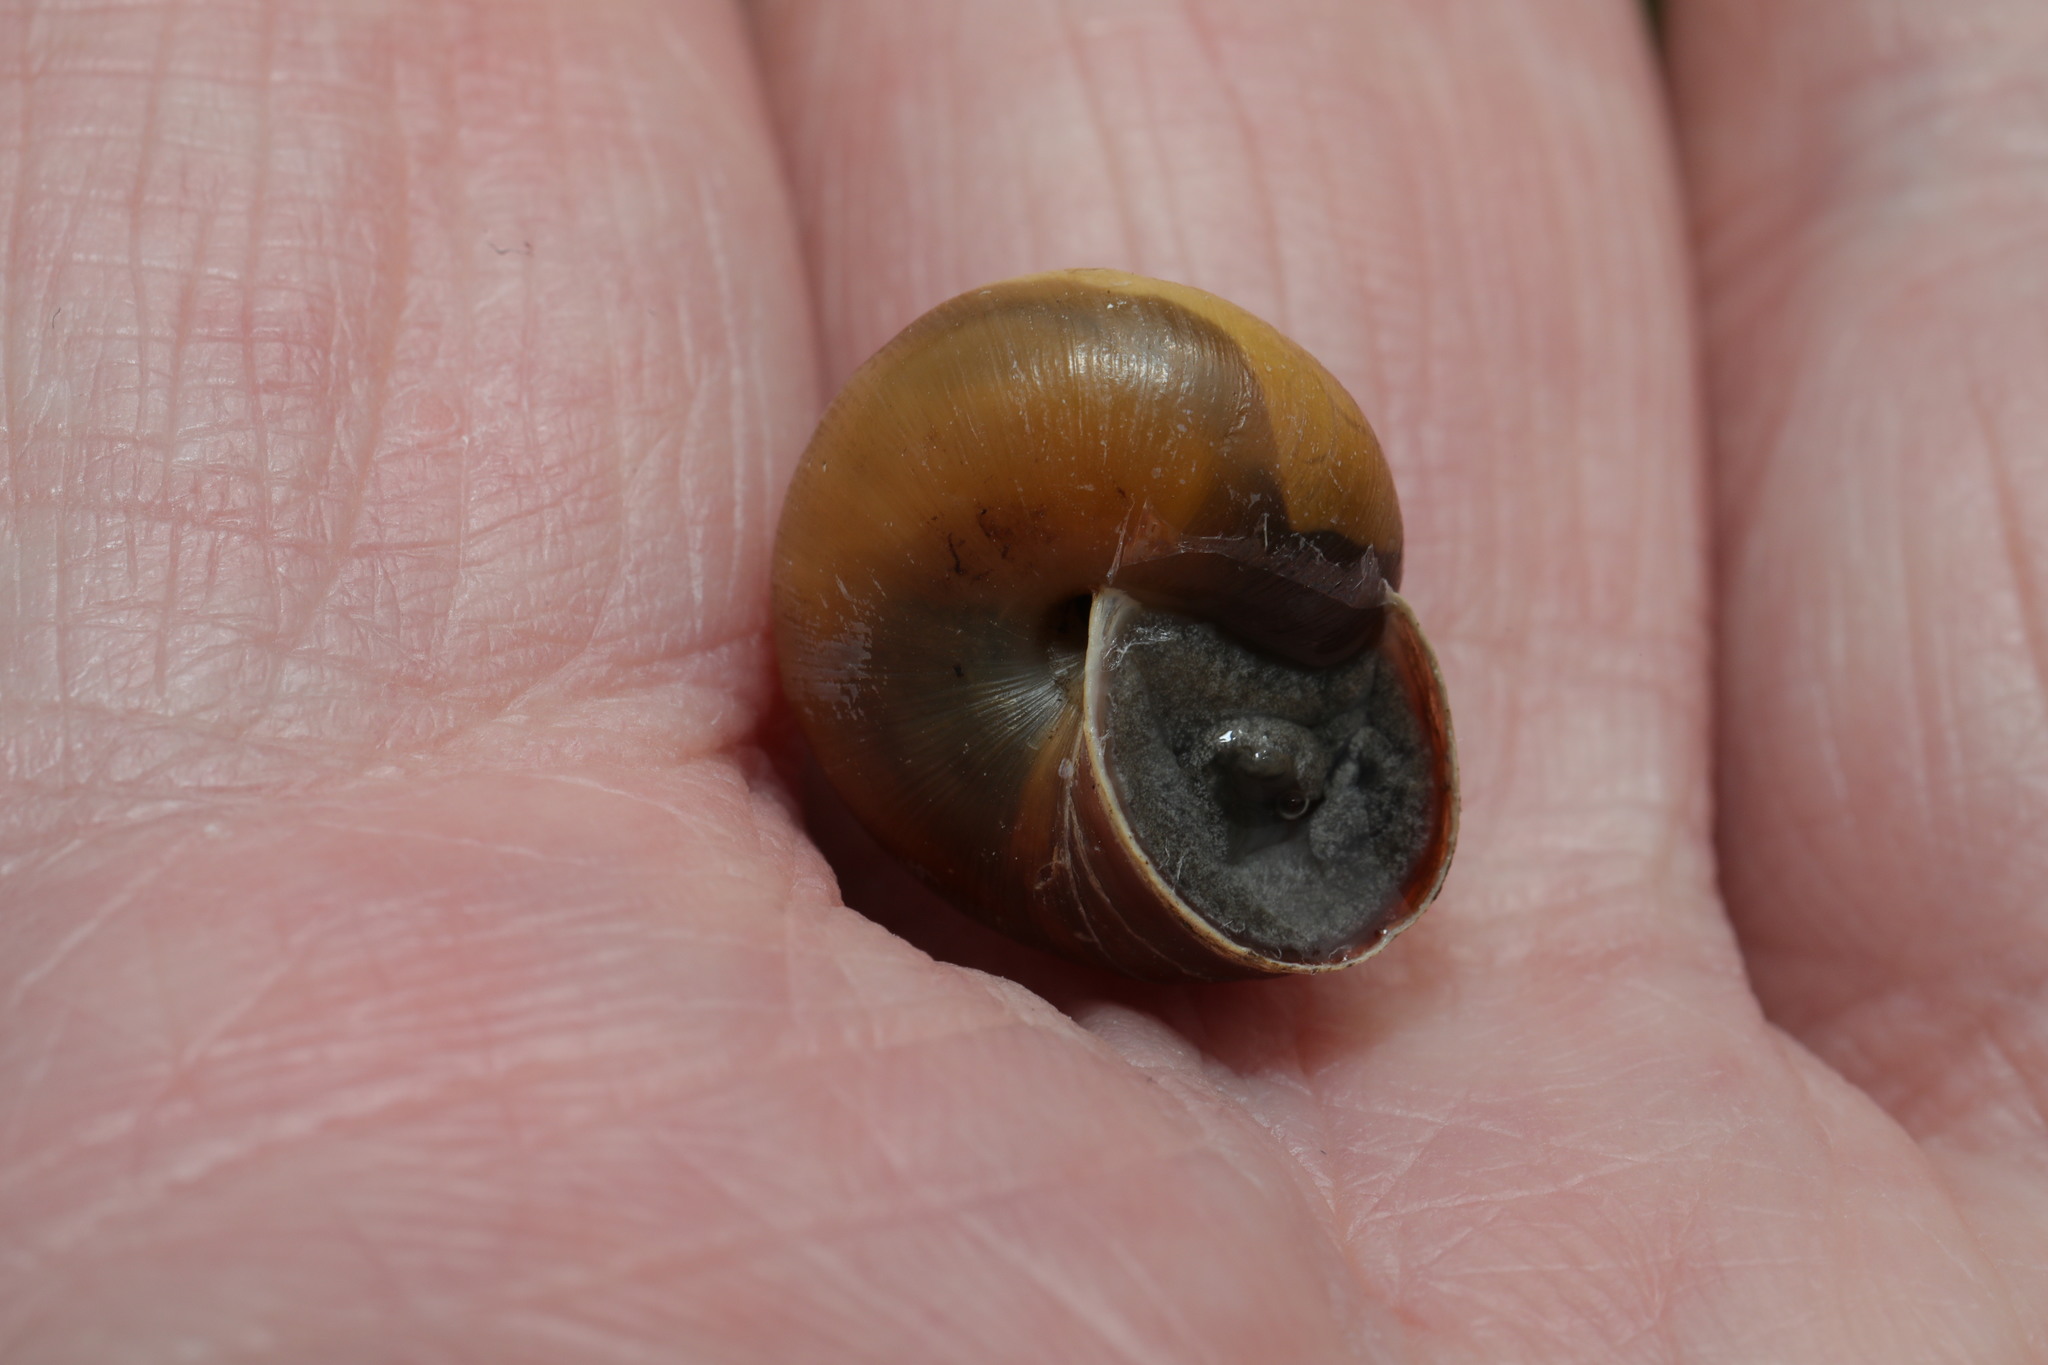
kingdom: Animalia
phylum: Mollusca
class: Gastropoda
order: Stylommatophora
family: Hygromiidae
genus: Monacha
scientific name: Monacha cantiana
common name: Kentish snail
